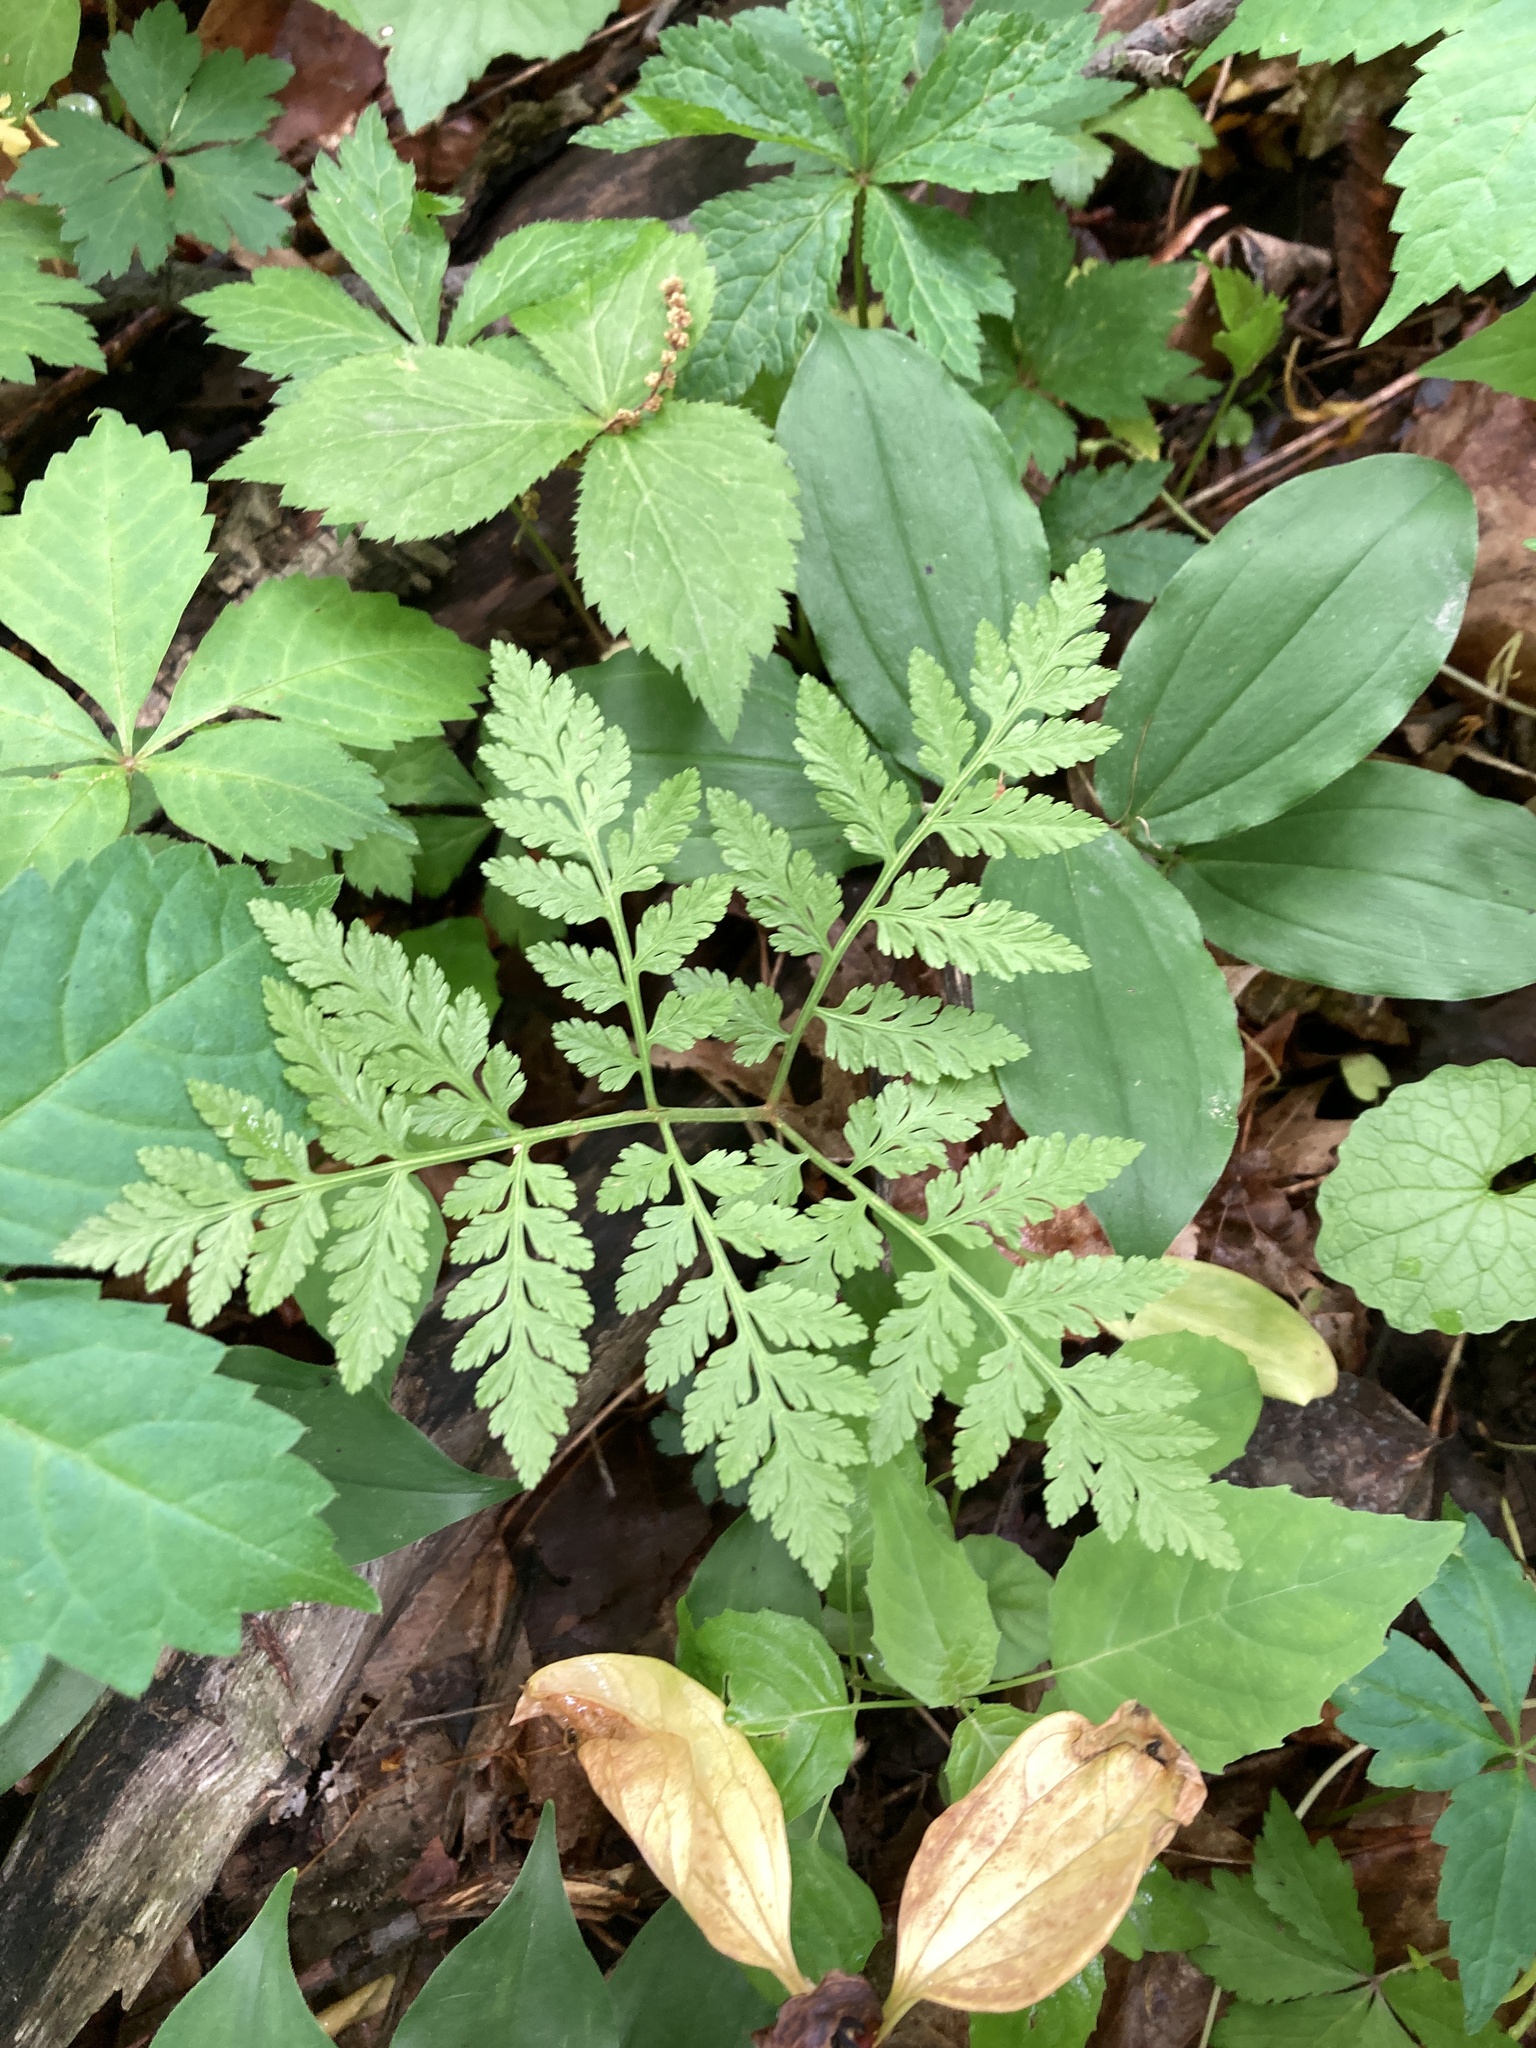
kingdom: Plantae
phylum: Tracheophyta
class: Polypodiopsida
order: Ophioglossales
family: Ophioglossaceae
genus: Botrypus
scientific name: Botrypus virginianus
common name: Common grapefern
